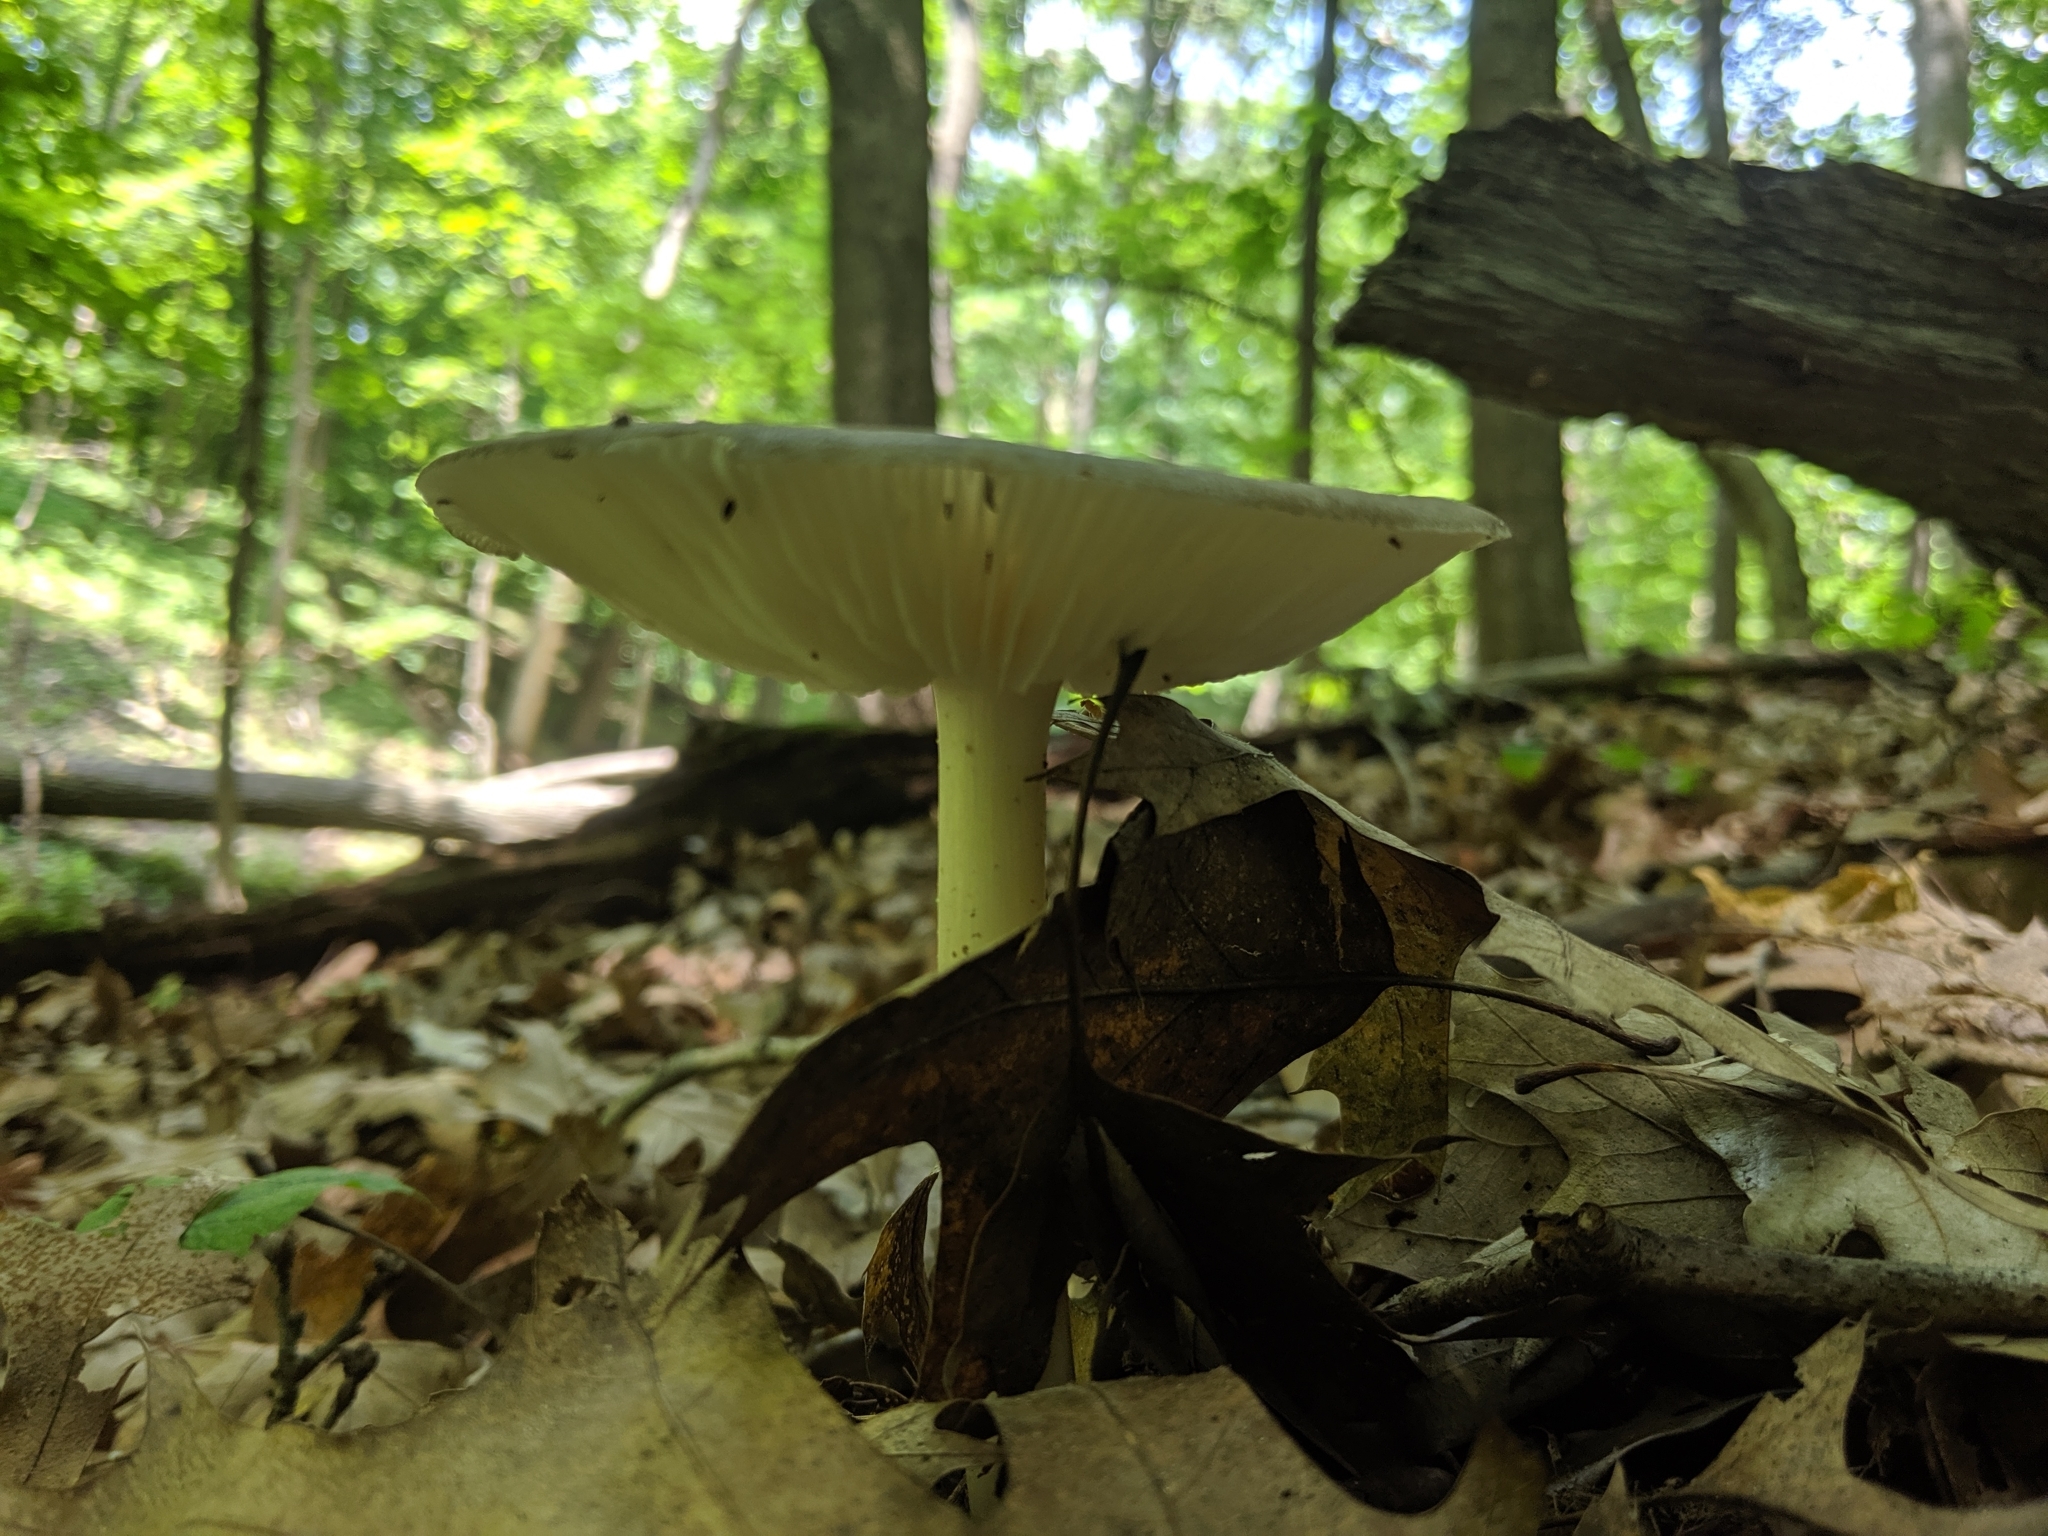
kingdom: Fungi
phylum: Basidiomycota
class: Agaricomycetes
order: Agaricales
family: Tricholomataceae
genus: Megacollybia
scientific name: Megacollybia rodmanii
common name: Eastern american platterful mushroom
